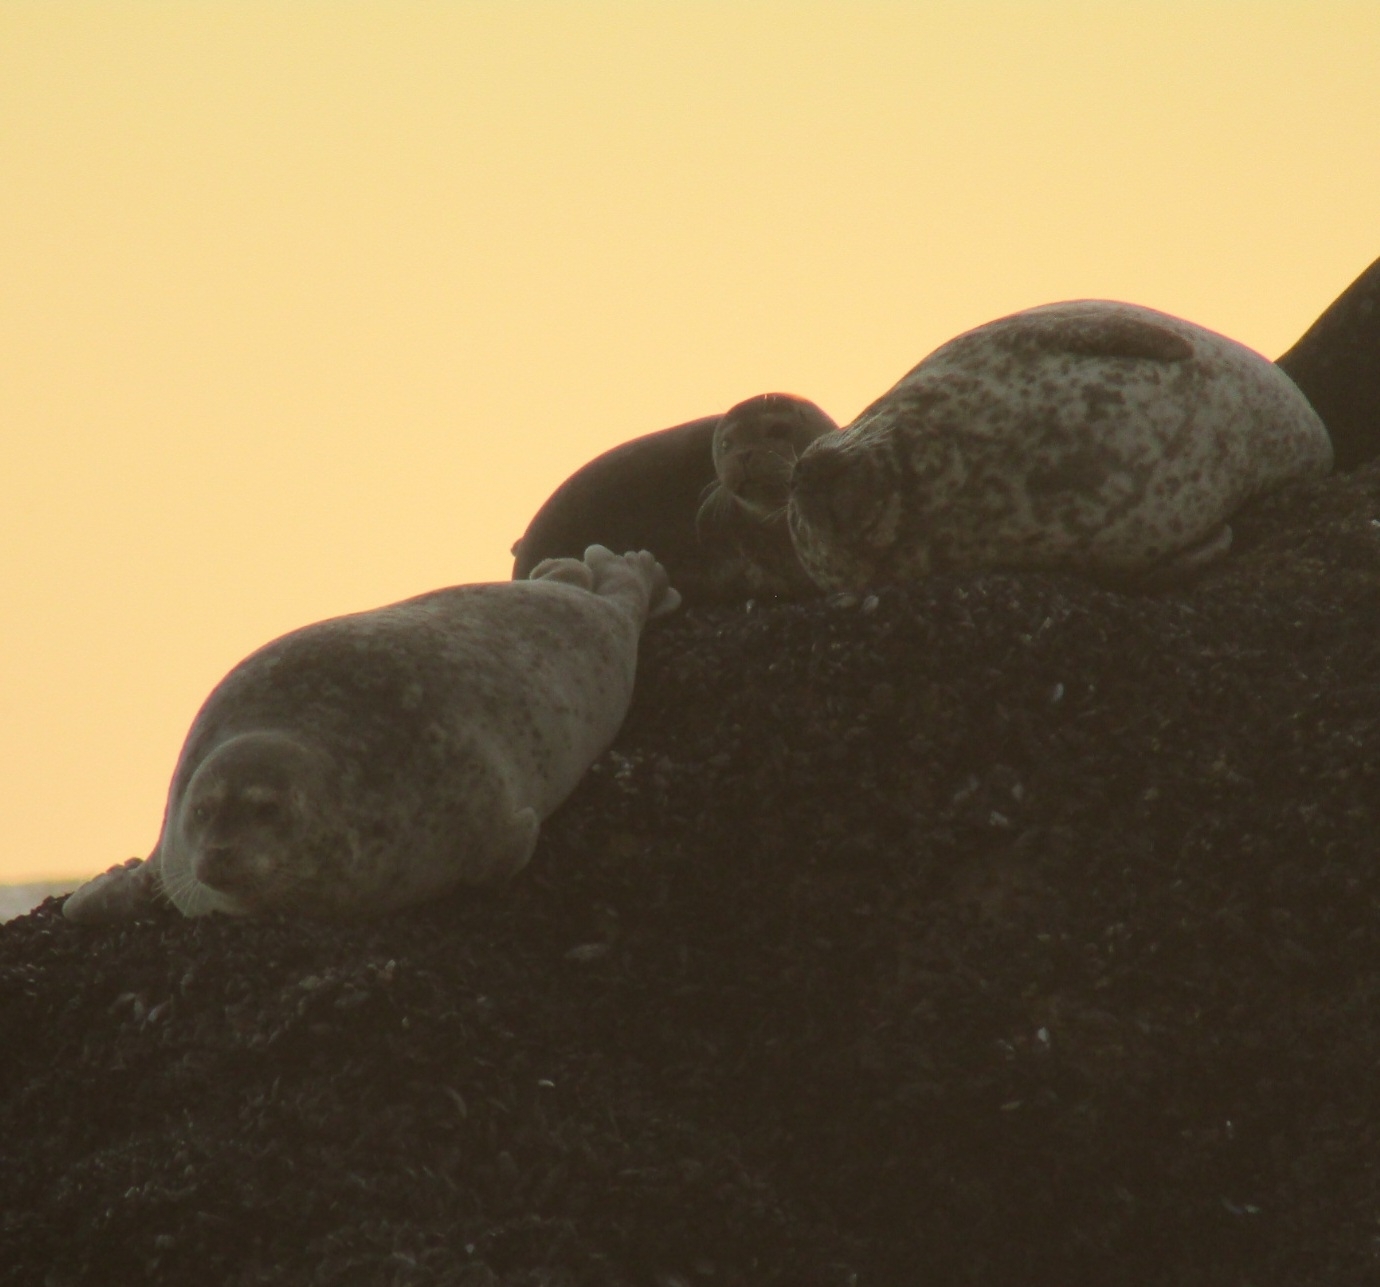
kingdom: Animalia
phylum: Chordata
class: Mammalia
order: Carnivora
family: Phocidae
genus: Phoca
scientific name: Phoca vitulina
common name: Harbor seal
